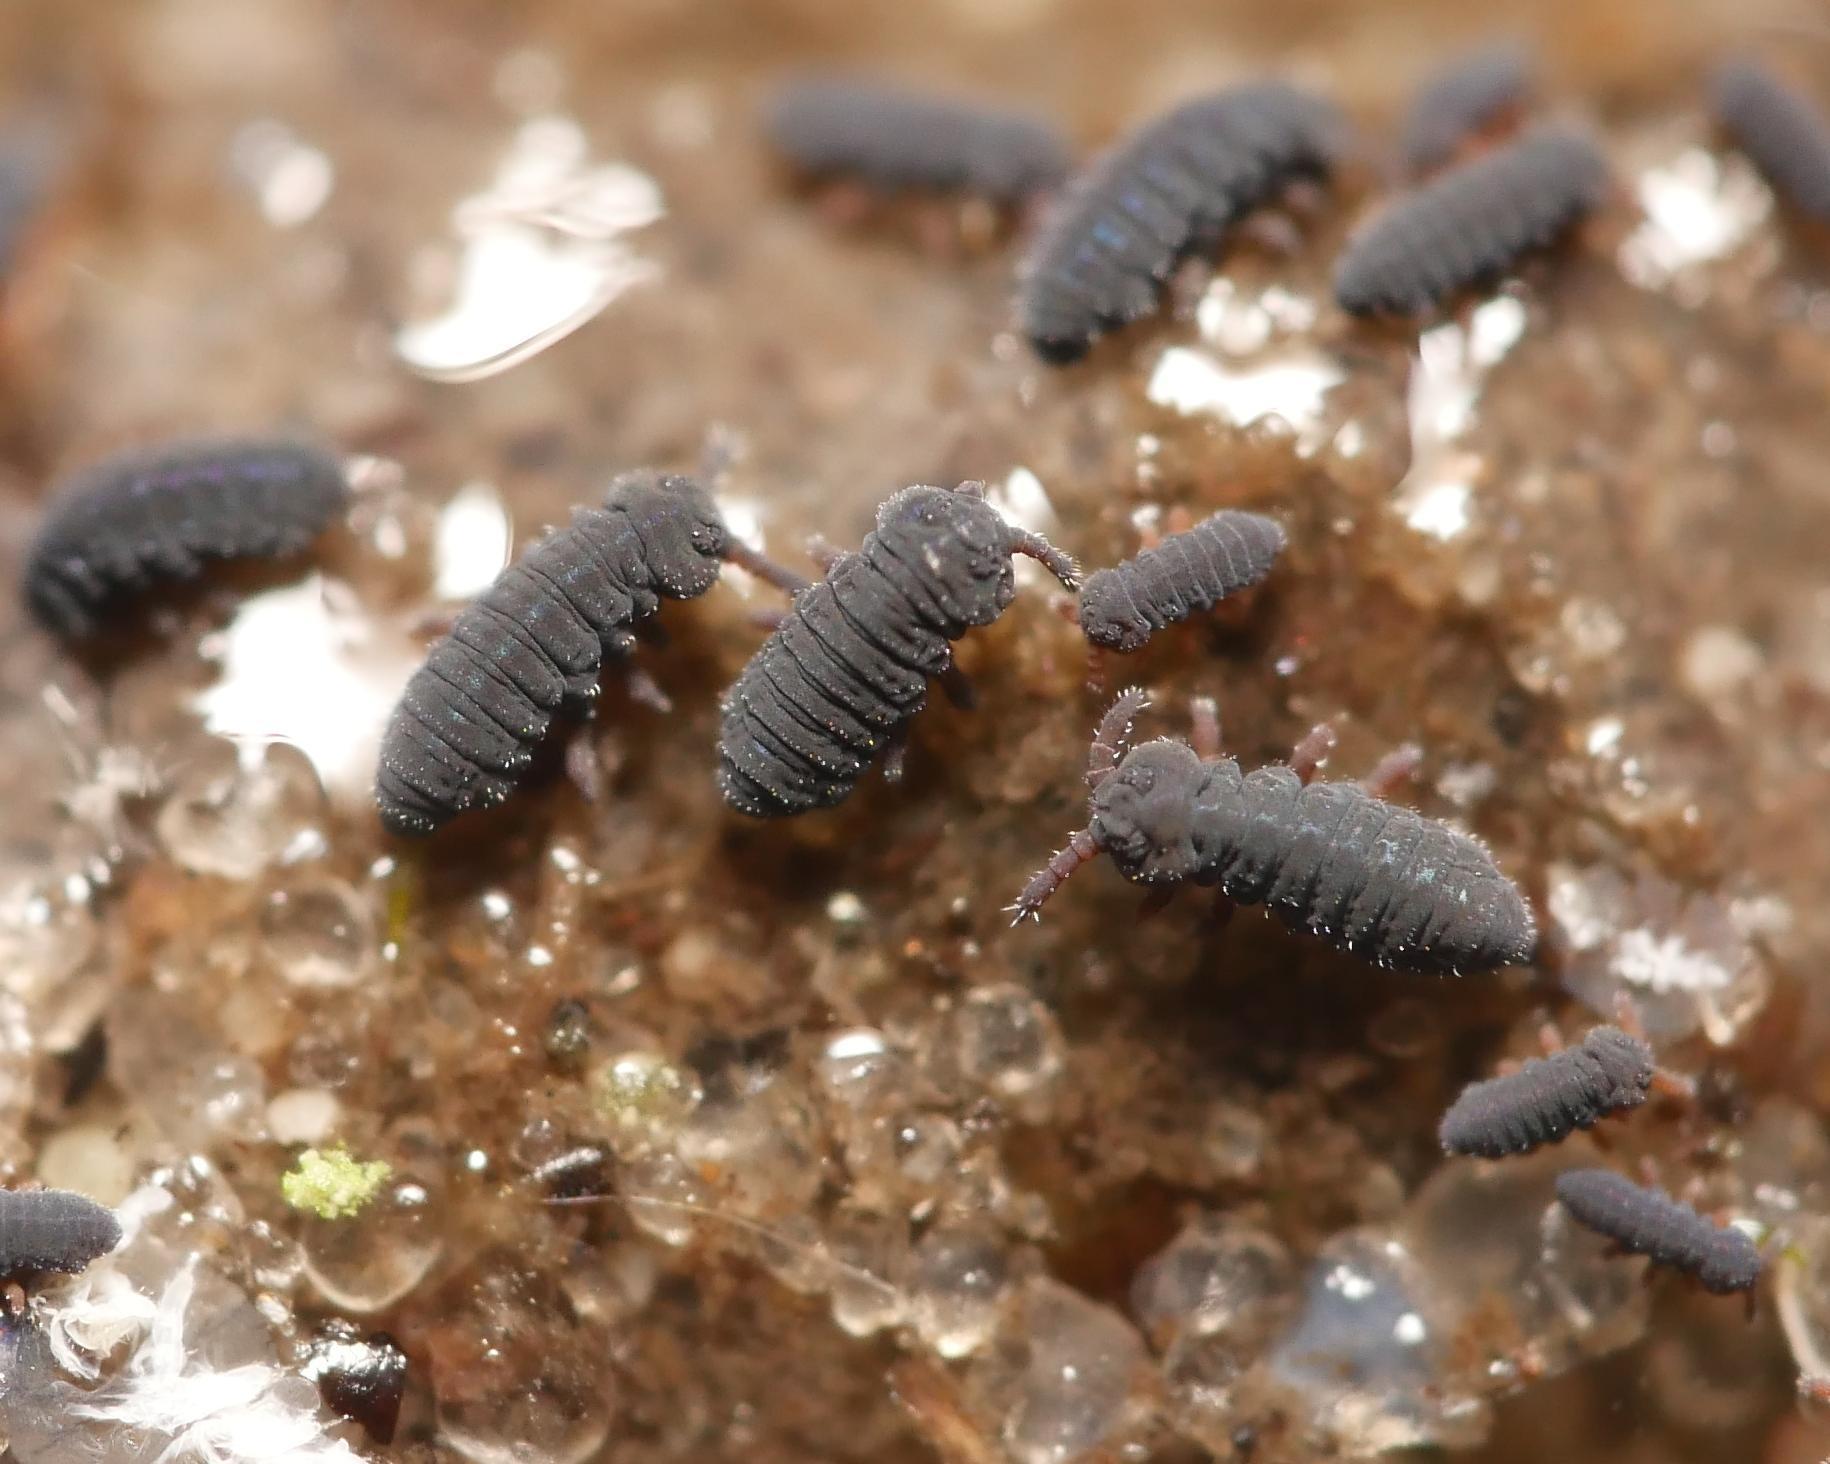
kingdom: Animalia
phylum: Arthropoda
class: Collembola
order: Poduromorpha
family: Poduridae
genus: Podura
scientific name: Podura aquatica
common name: Water springtail
